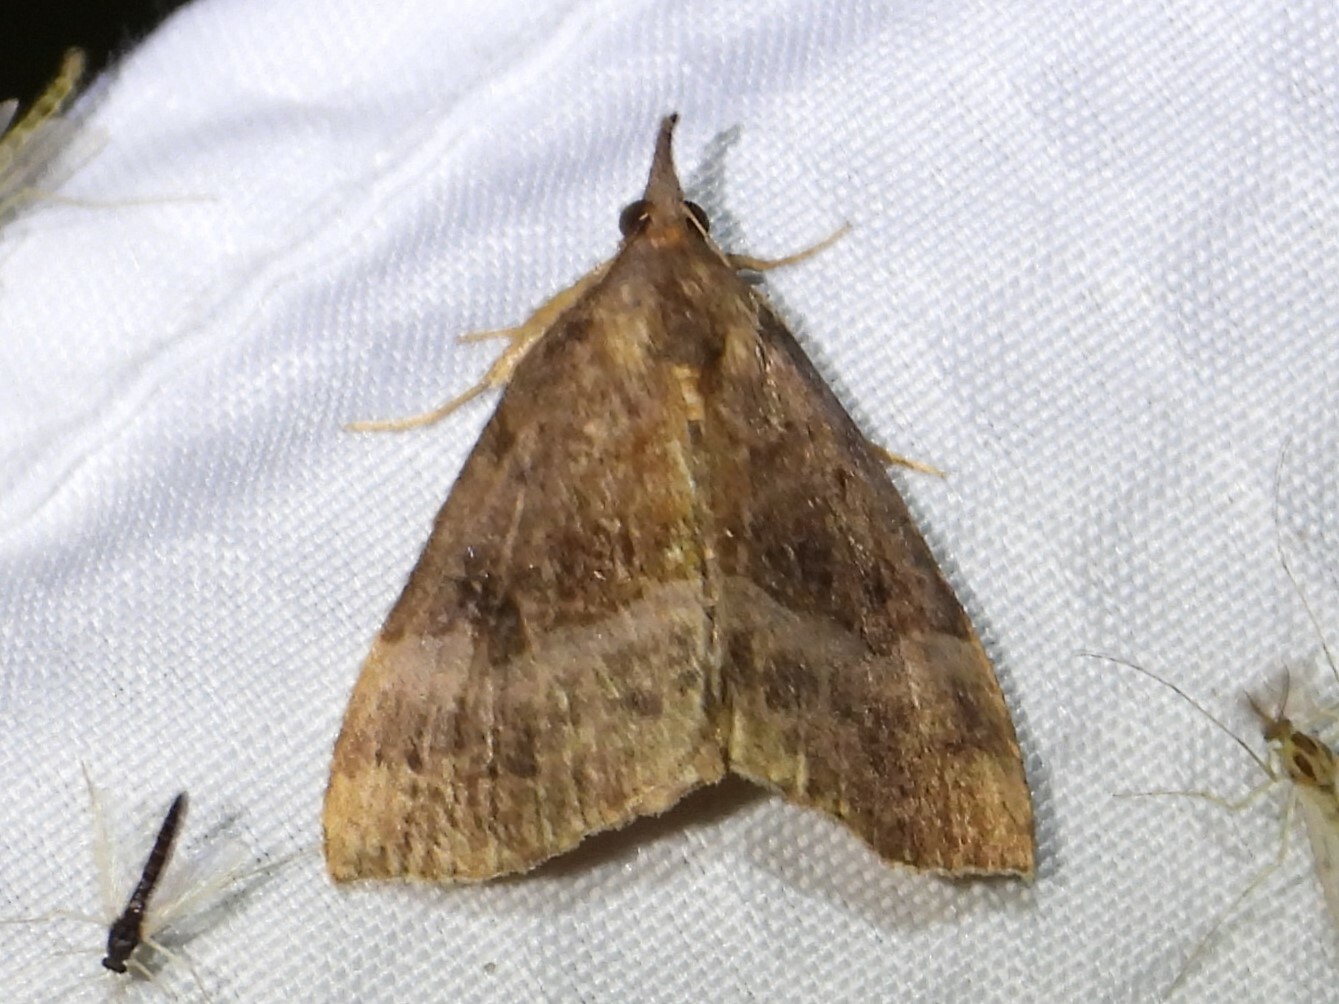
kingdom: Animalia
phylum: Arthropoda
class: Insecta
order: Lepidoptera
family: Erebidae
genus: Hypena
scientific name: Hypena madefactalis
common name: Gray-edged snout
